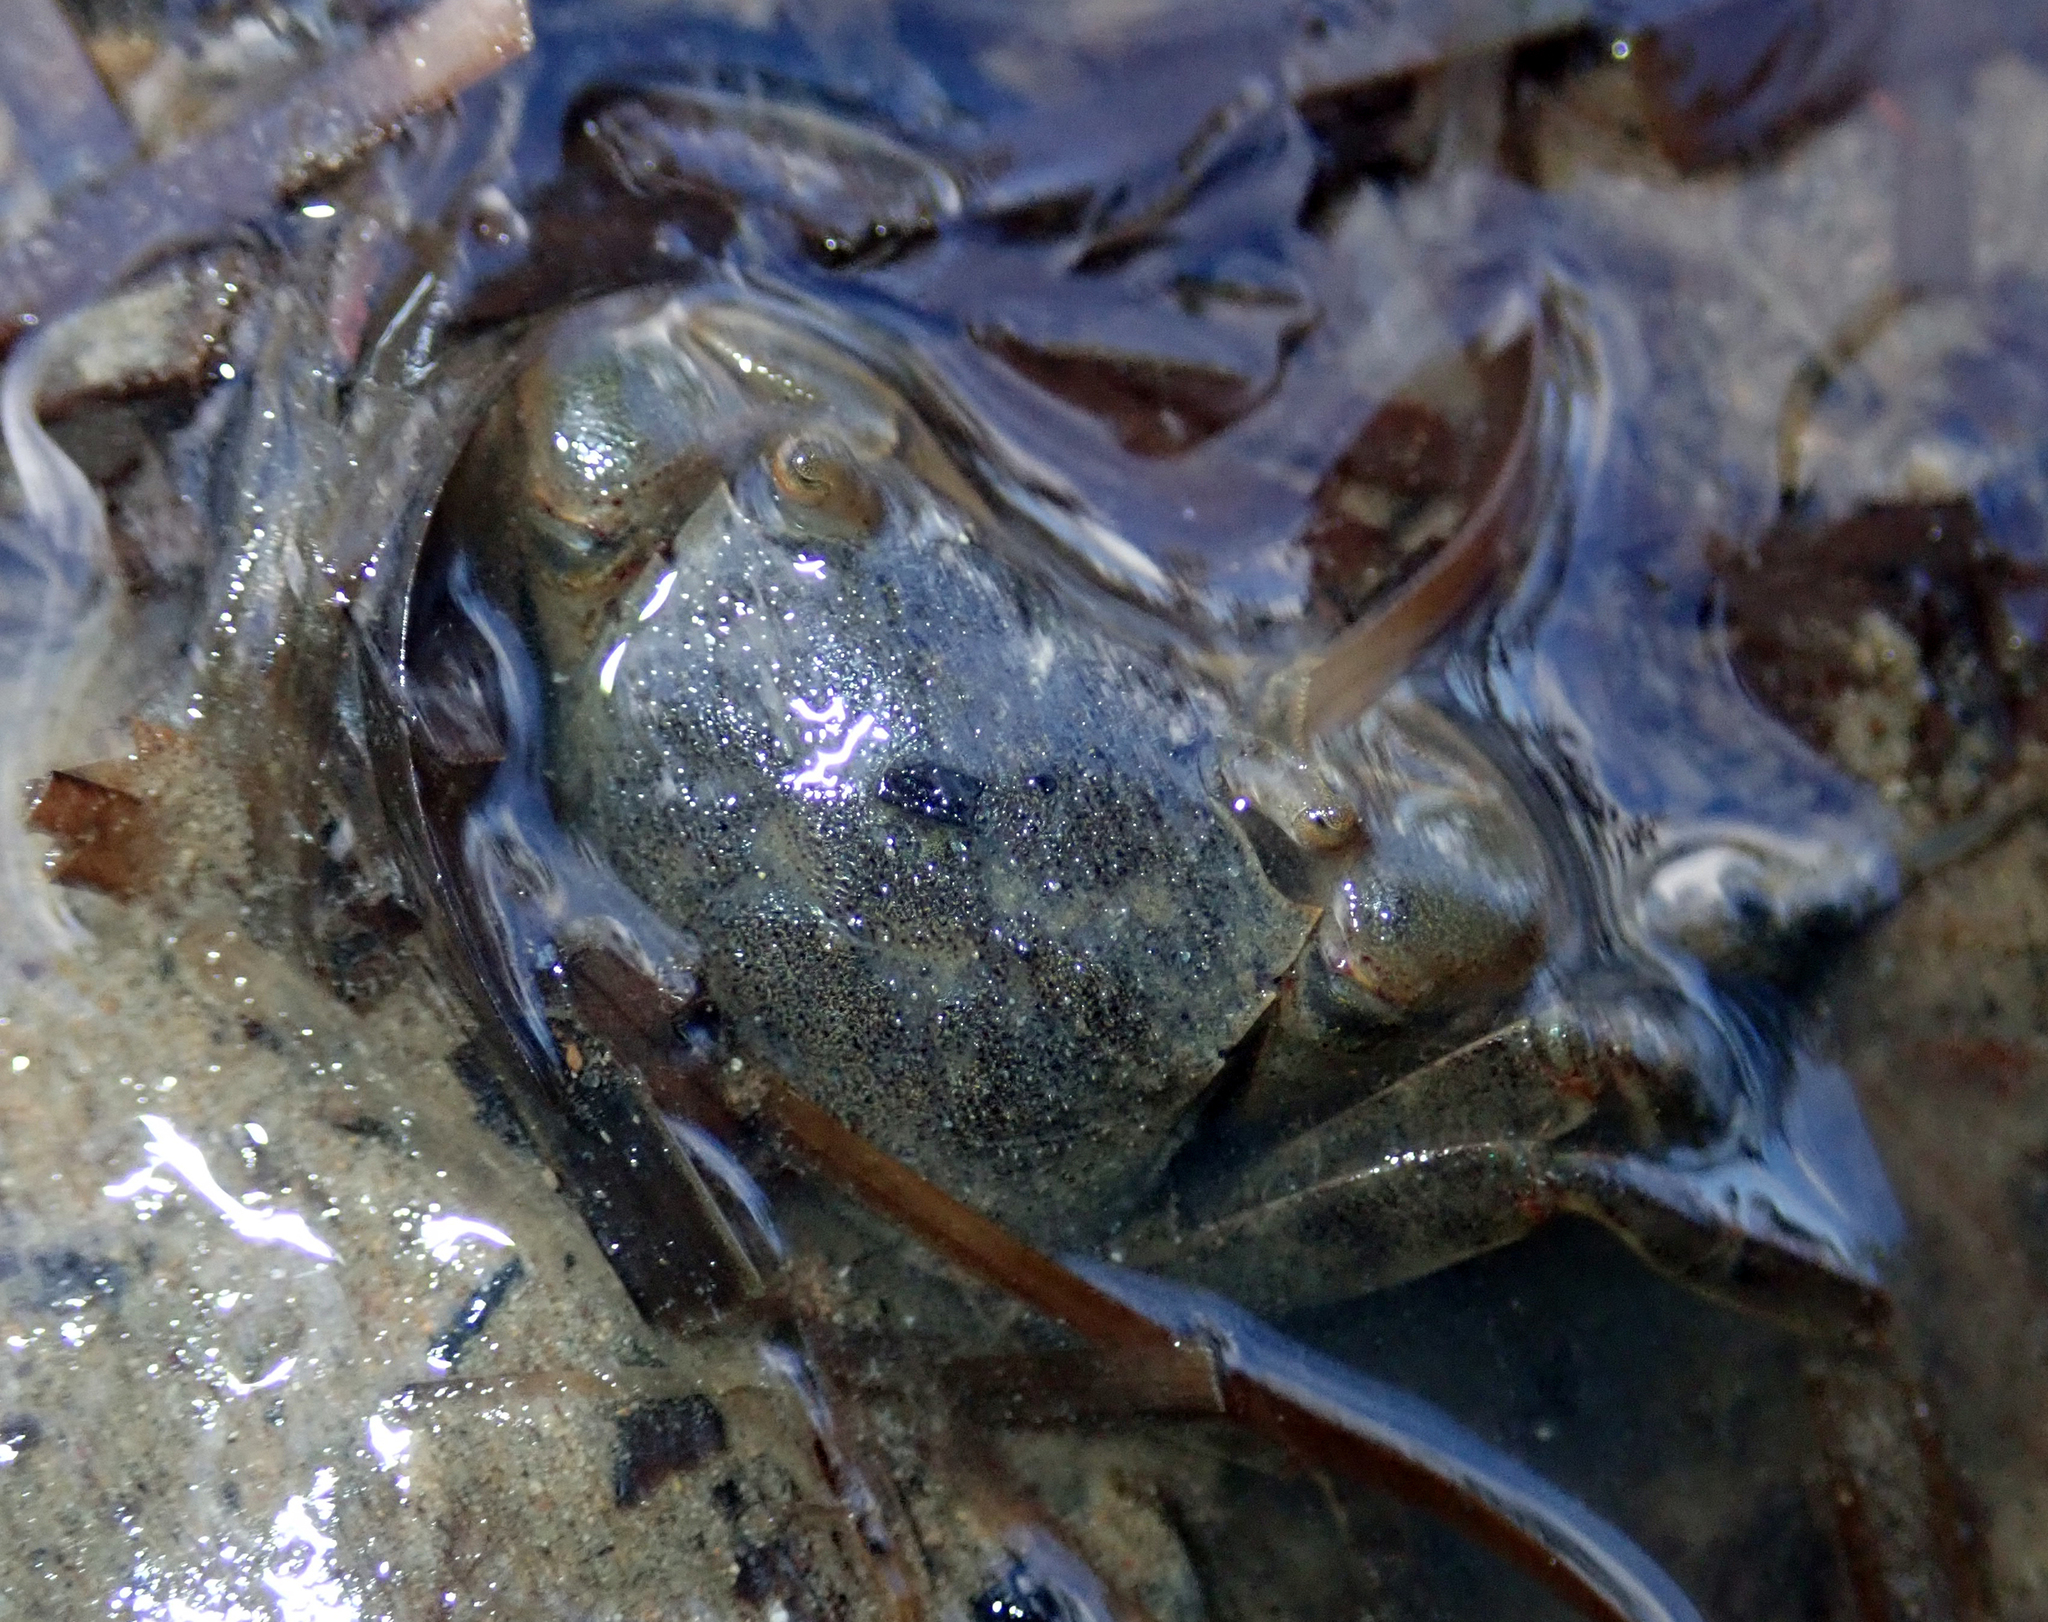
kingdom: Animalia
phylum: Arthropoda
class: Malacostraca
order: Decapoda
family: Varunidae
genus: Austrohelice
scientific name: Austrohelice crassa
